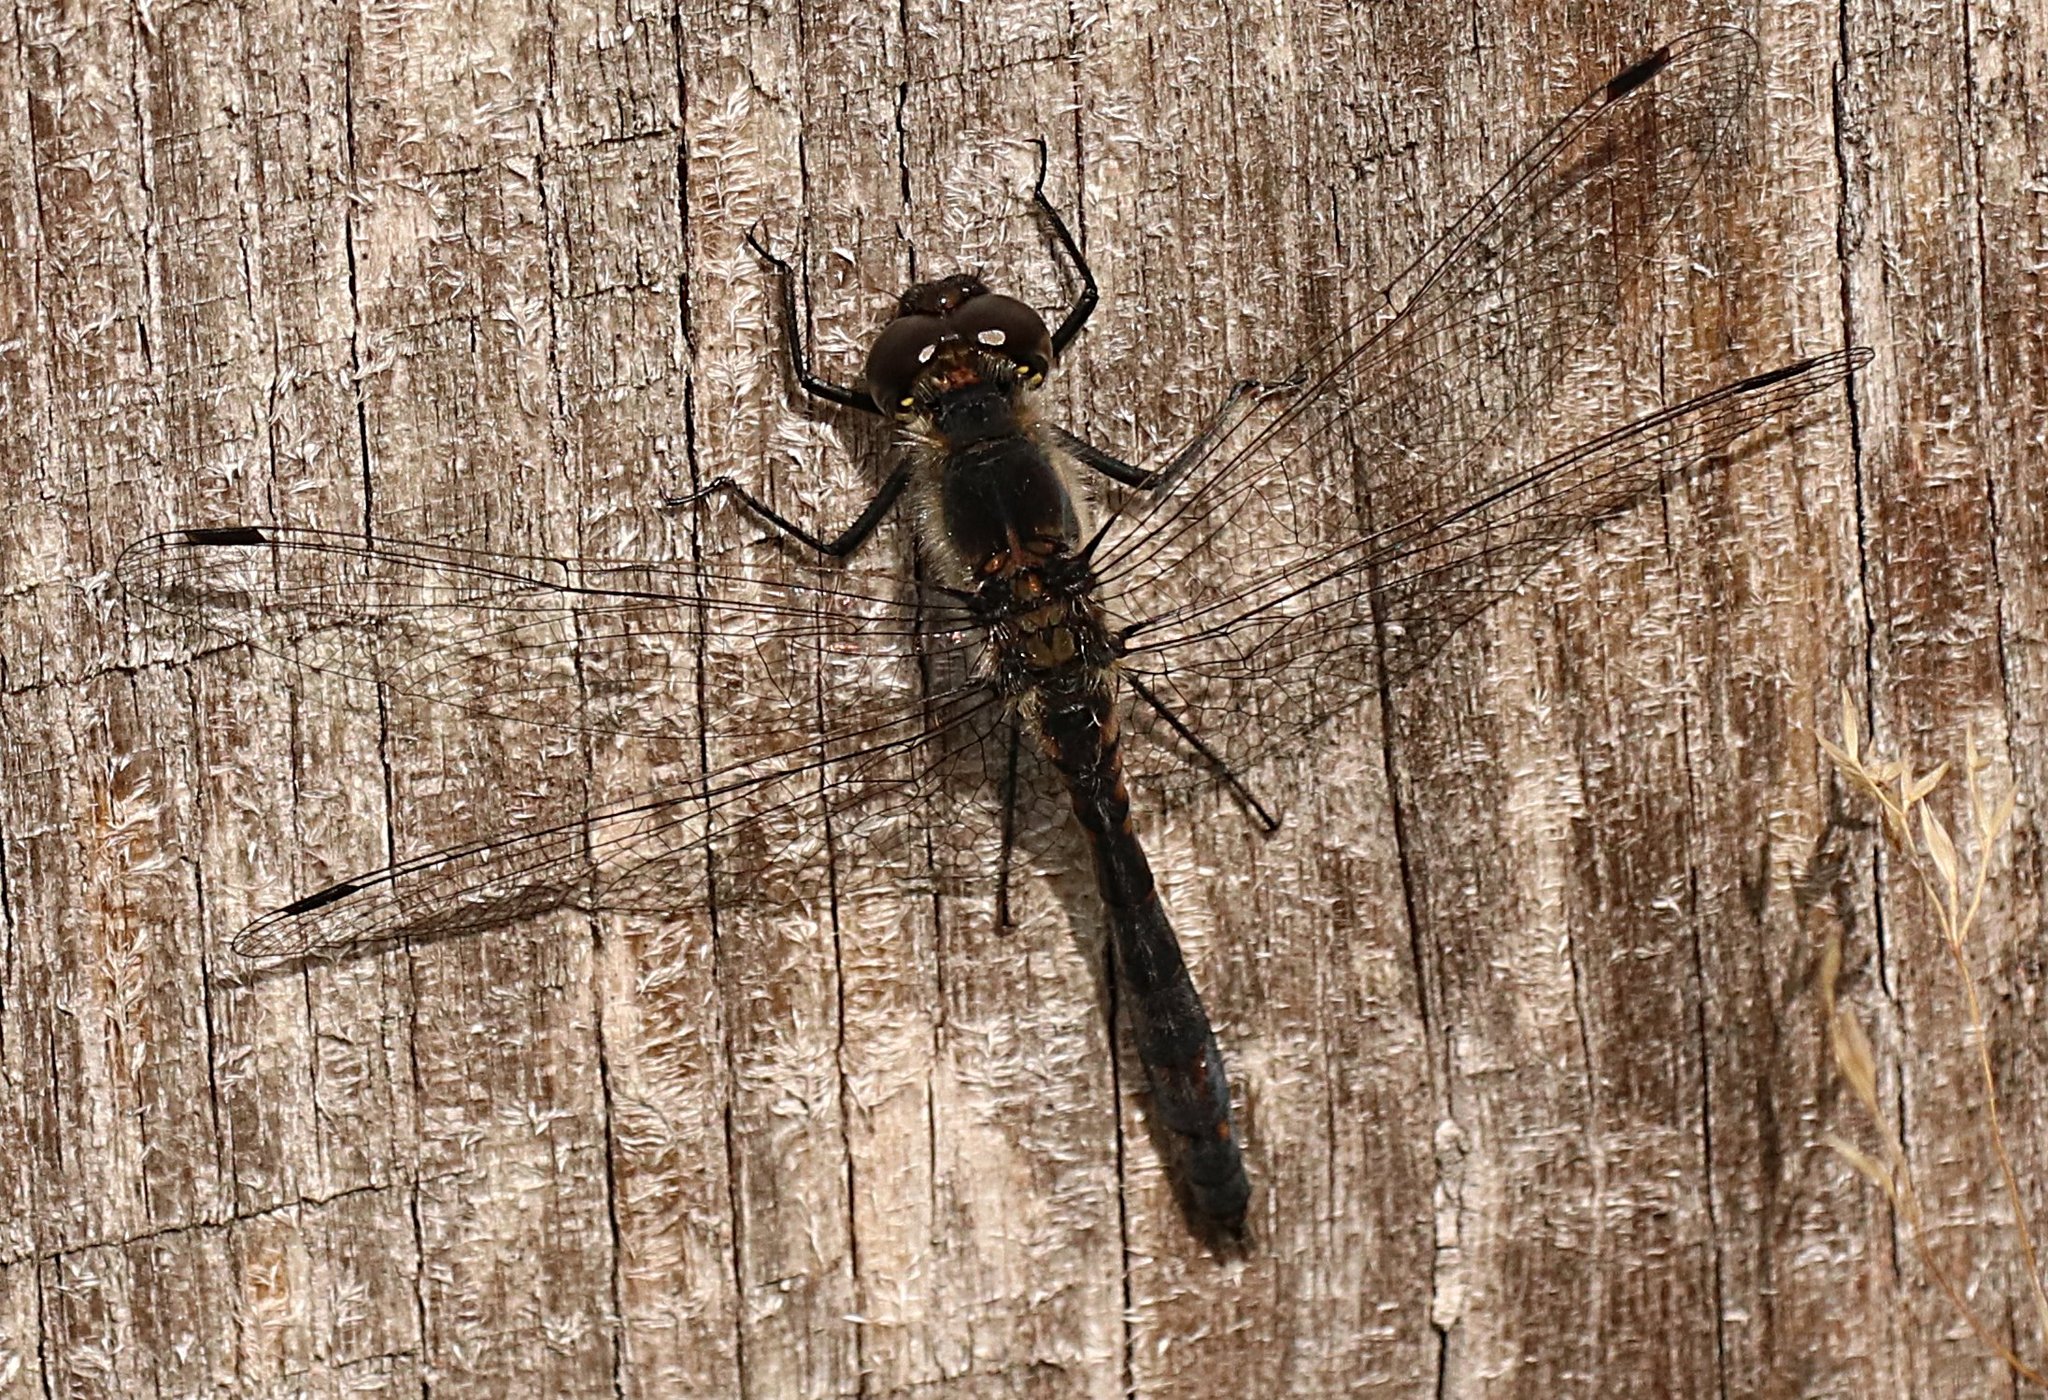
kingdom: Animalia
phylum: Arthropoda
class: Insecta
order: Odonata
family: Libellulidae
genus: Sympetrum
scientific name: Sympetrum danae
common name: Black darter
